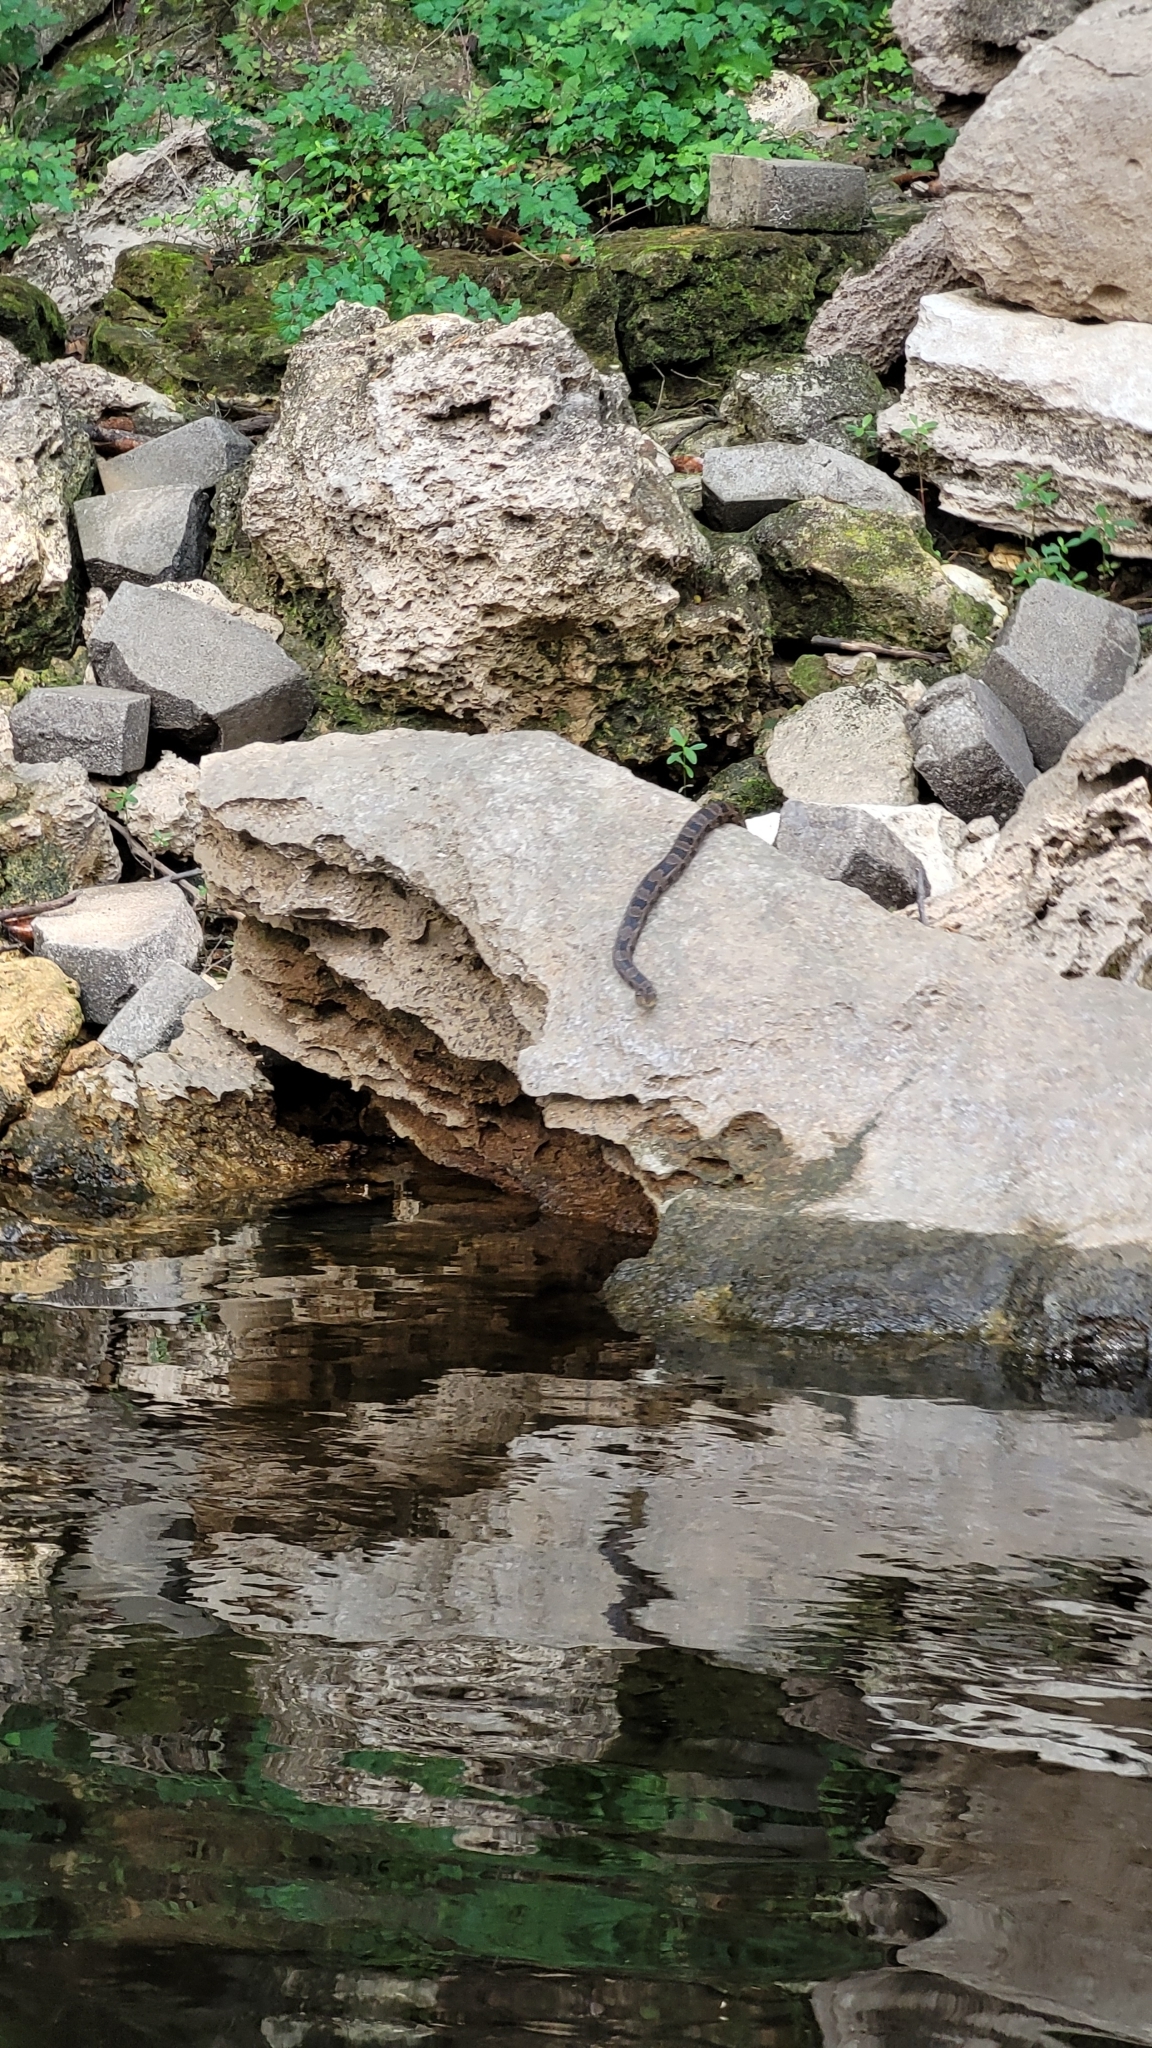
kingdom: Animalia
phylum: Chordata
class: Squamata
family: Colubridae
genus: Nerodia
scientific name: Nerodia taxispilota
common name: Brown water snake
